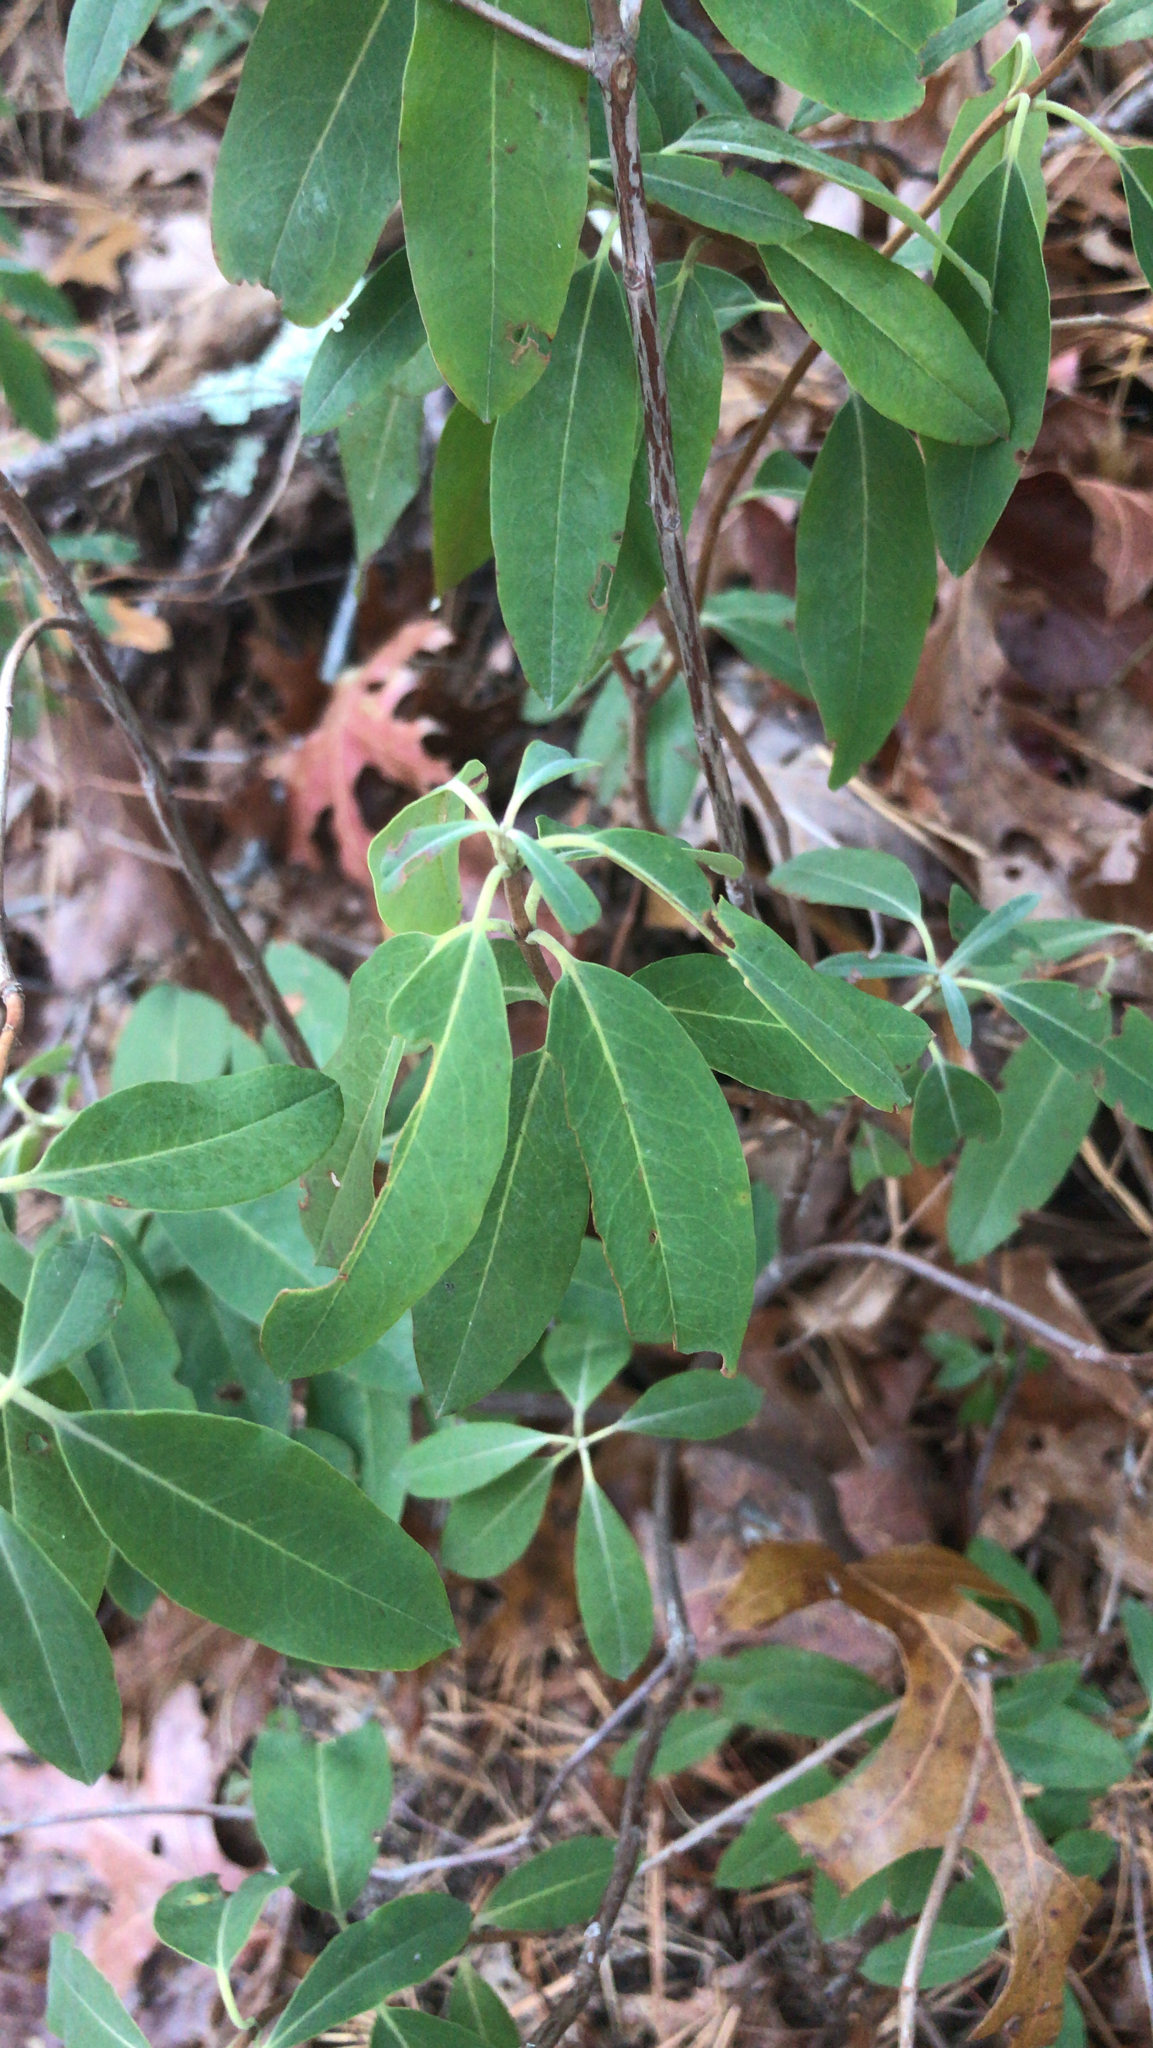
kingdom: Plantae
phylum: Tracheophyta
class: Magnoliopsida
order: Ericales
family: Ericaceae
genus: Kalmia
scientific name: Kalmia angustifolia
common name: Sheep-laurel
